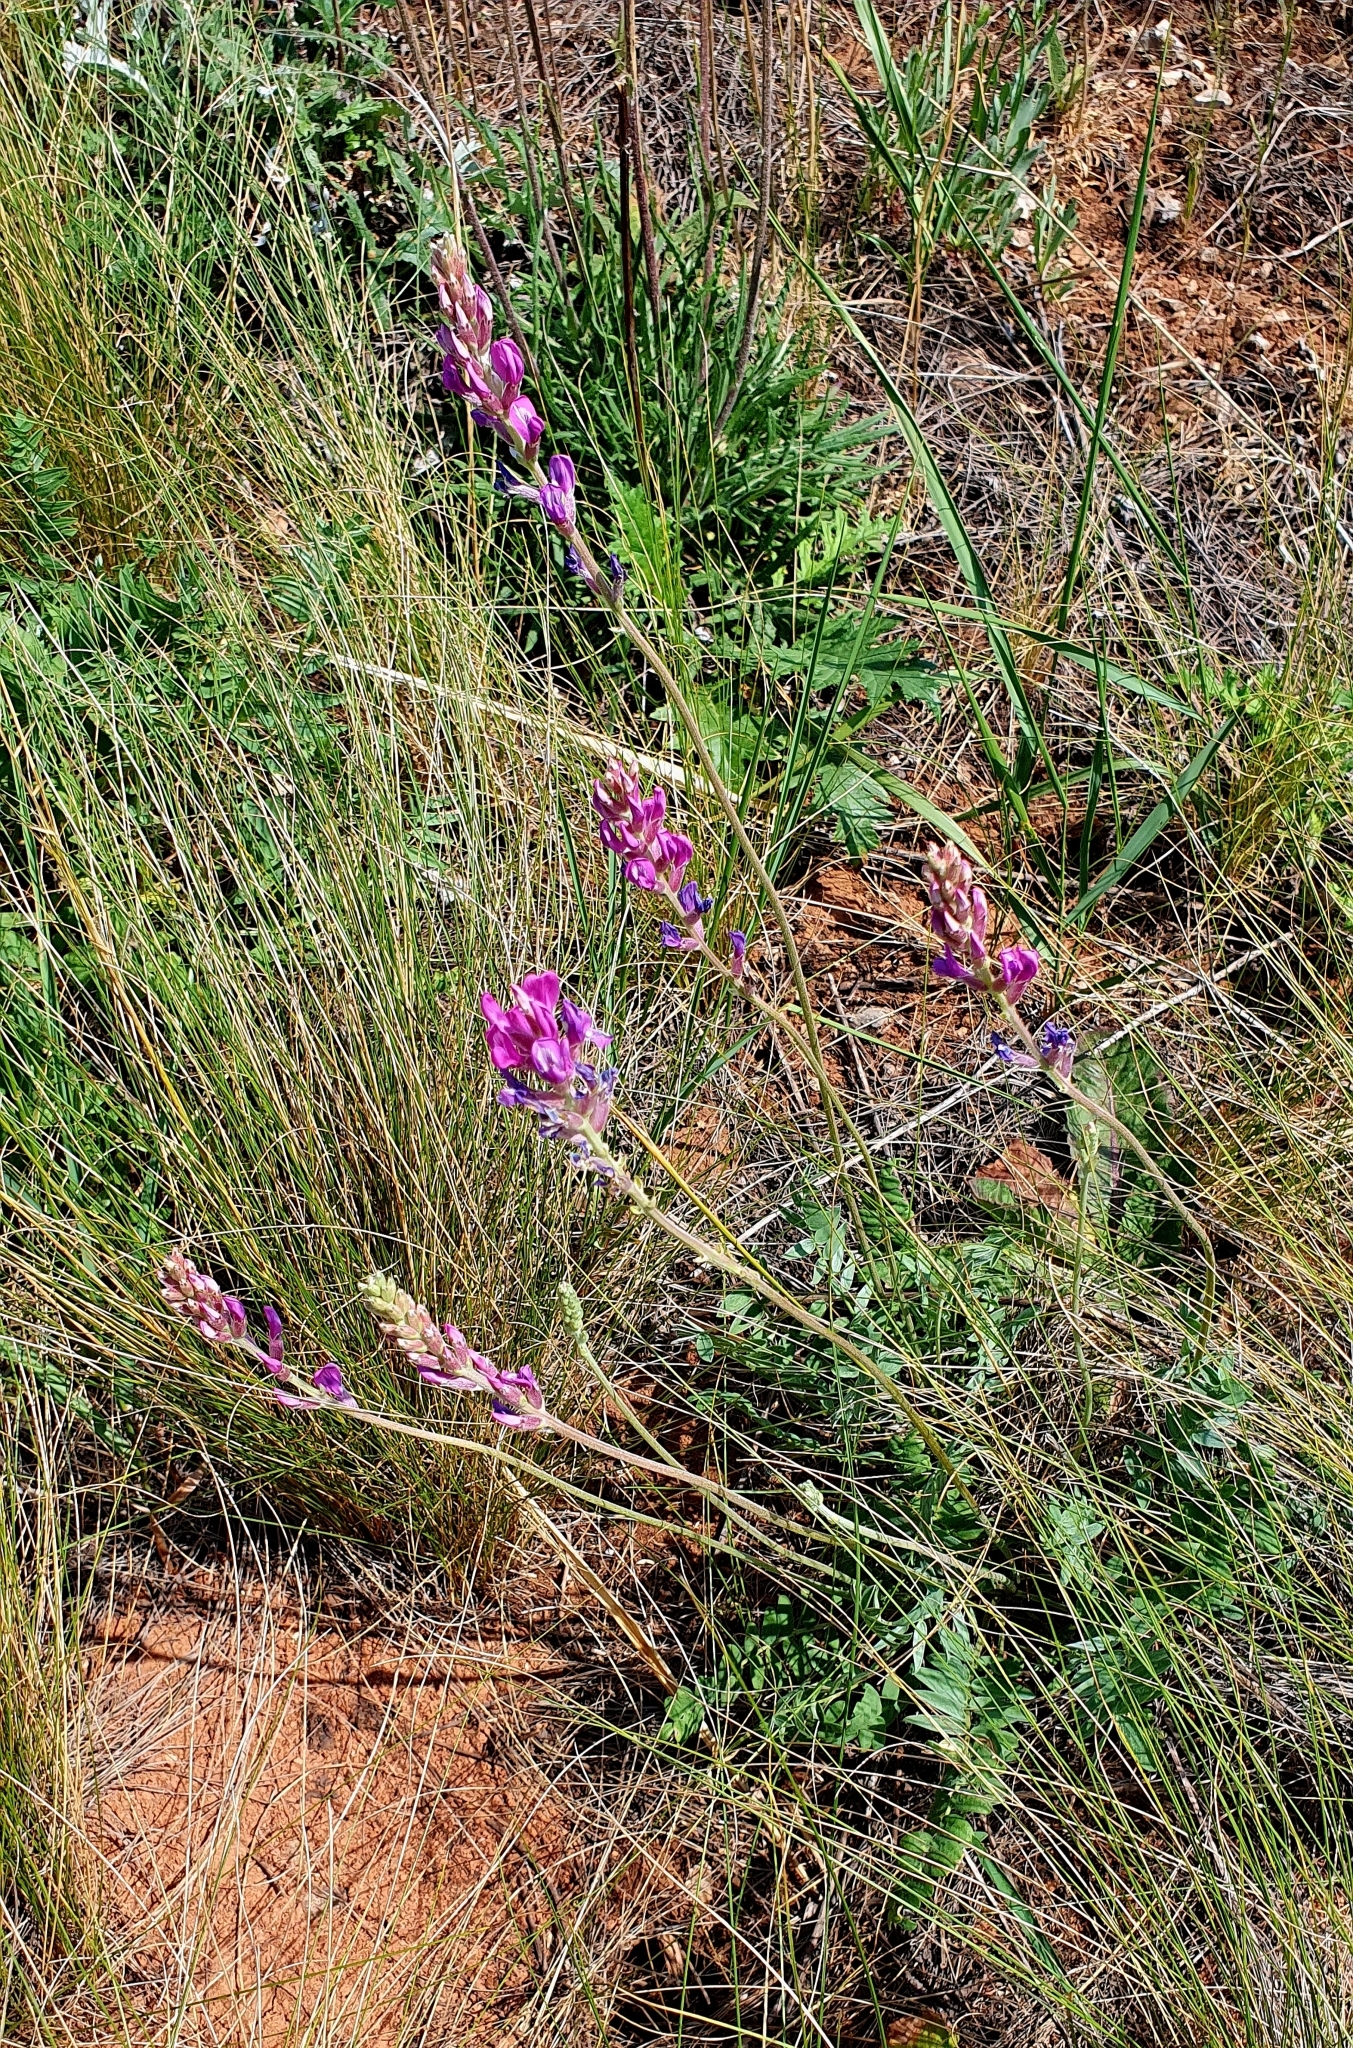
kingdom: Plantae
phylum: Tracheophyta
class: Magnoliopsida
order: Fabales
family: Fabaceae
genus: Oxytropis
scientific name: Oxytropis knjazevii
